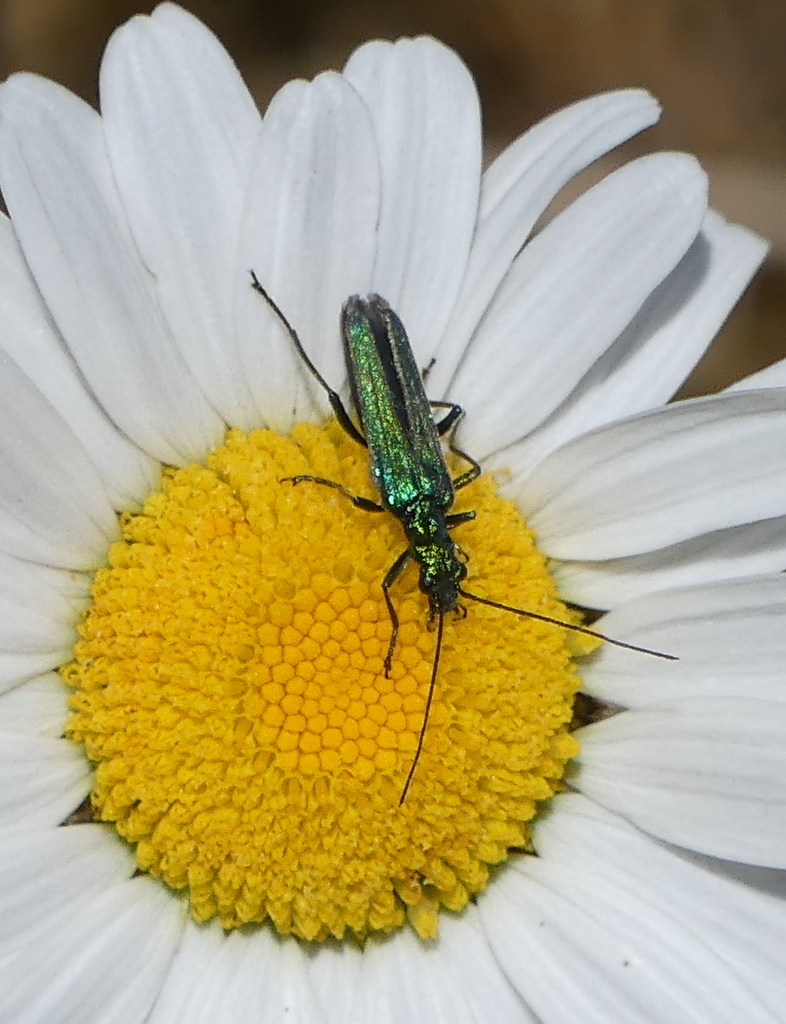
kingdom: Animalia
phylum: Arthropoda
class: Insecta
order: Coleoptera
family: Oedemeridae
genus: Oedemera
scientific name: Oedemera nobilis
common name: Swollen-thighed beetle
